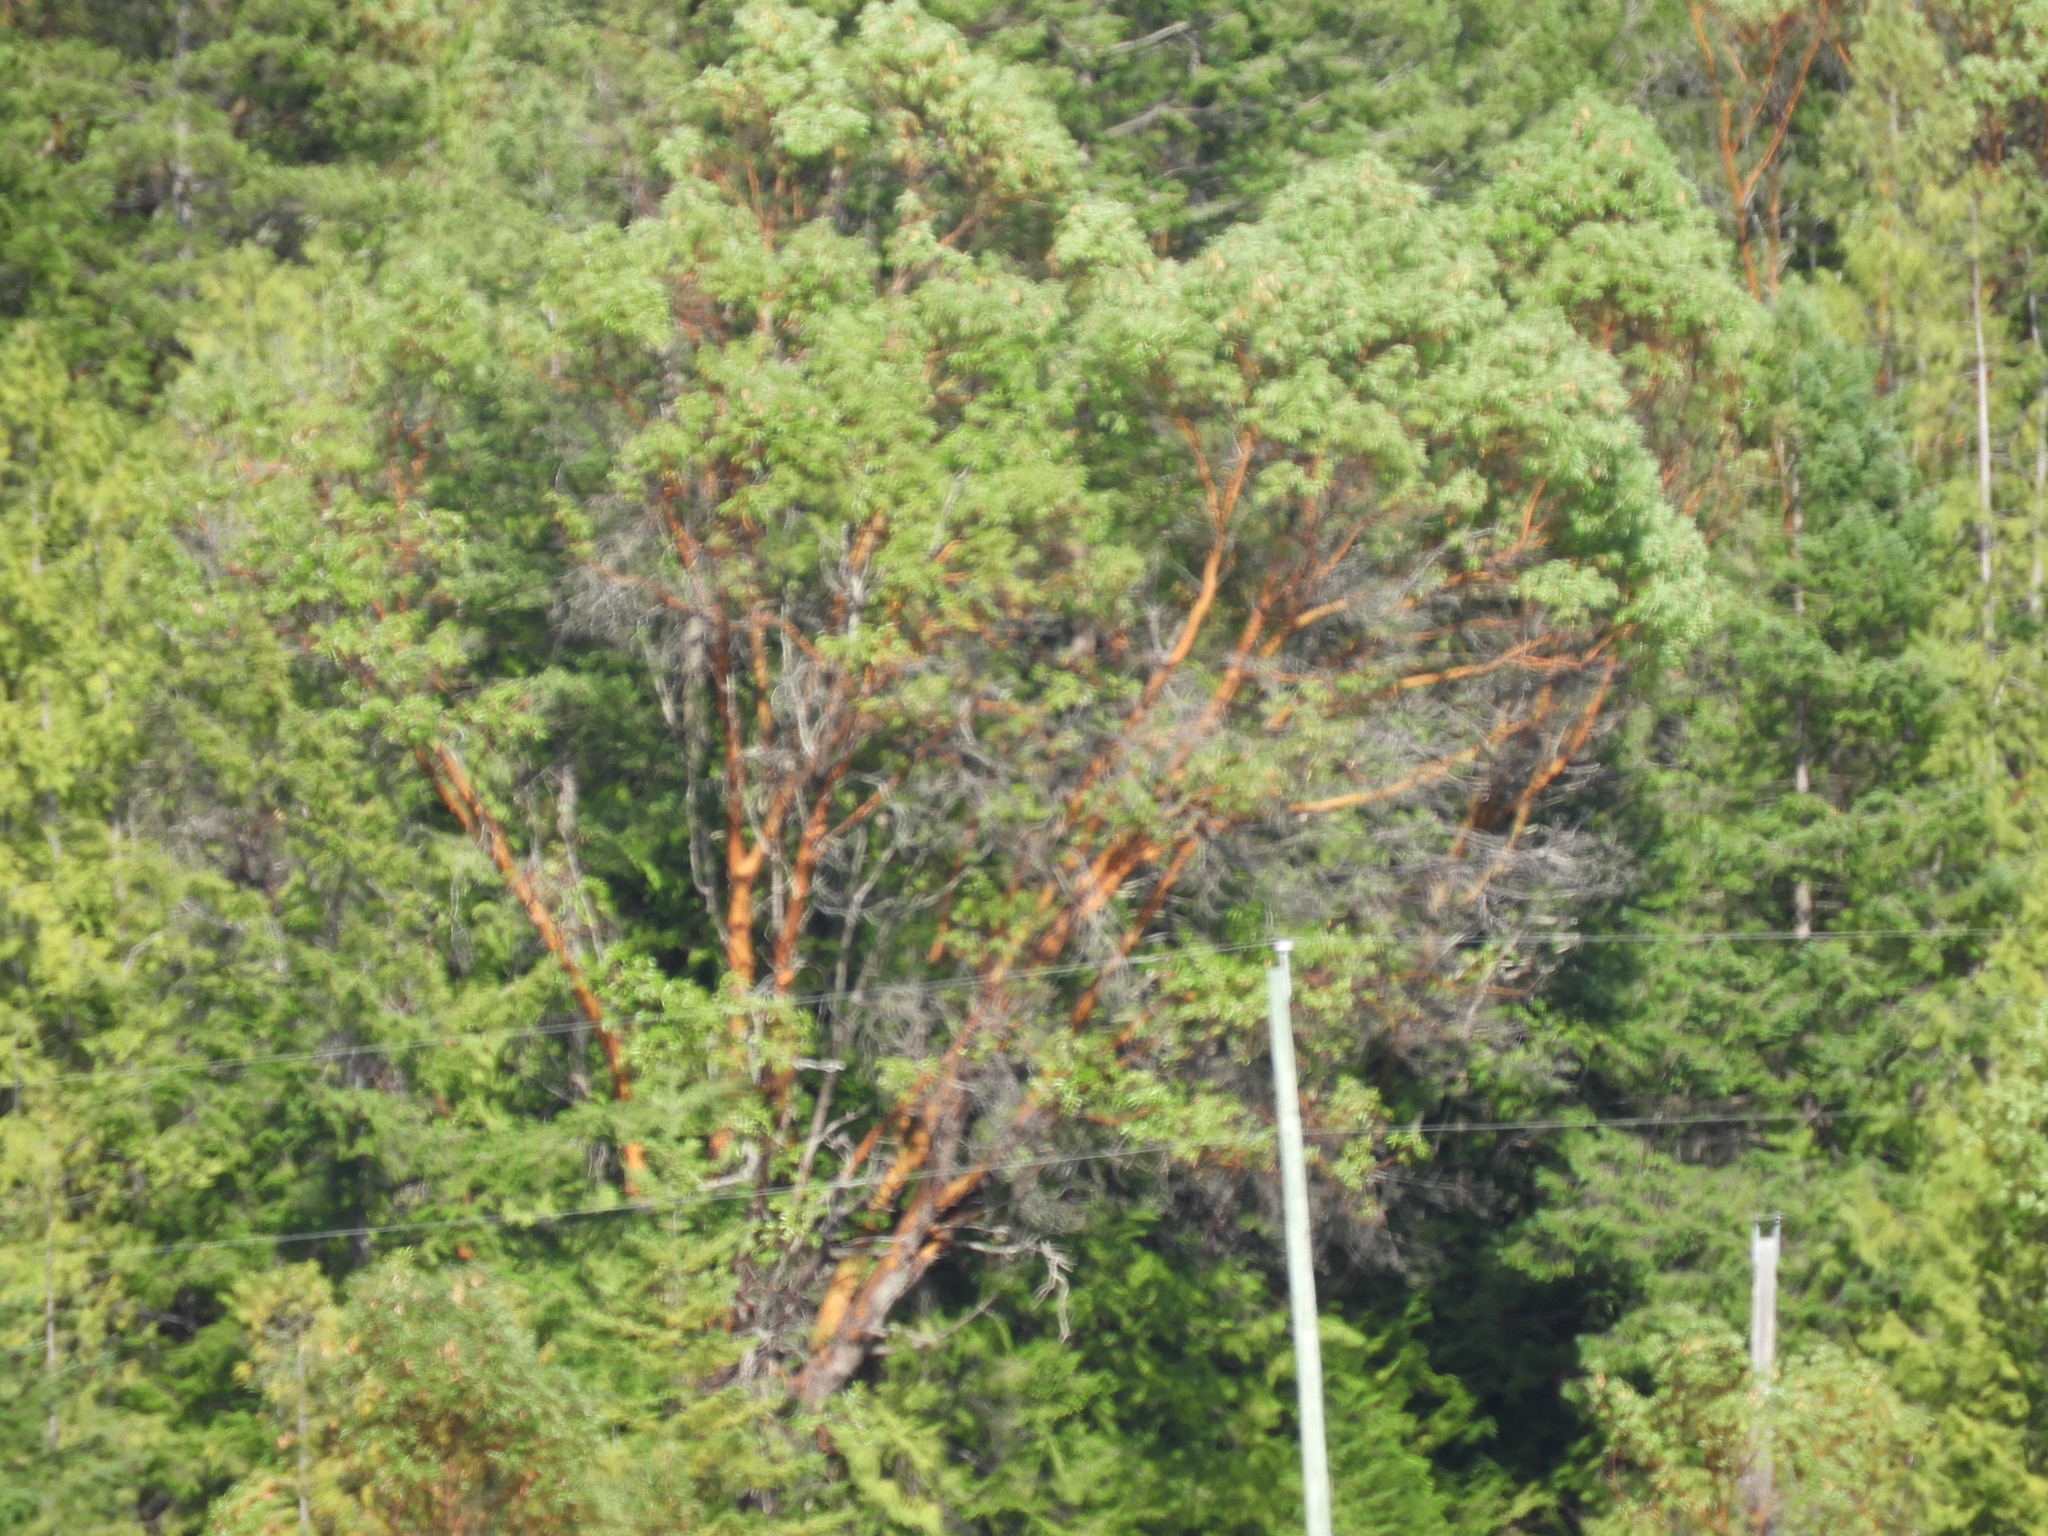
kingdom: Plantae
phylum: Tracheophyta
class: Magnoliopsida
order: Ericales
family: Ericaceae
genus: Arbutus
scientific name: Arbutus menziesii
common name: Pacific madrone
